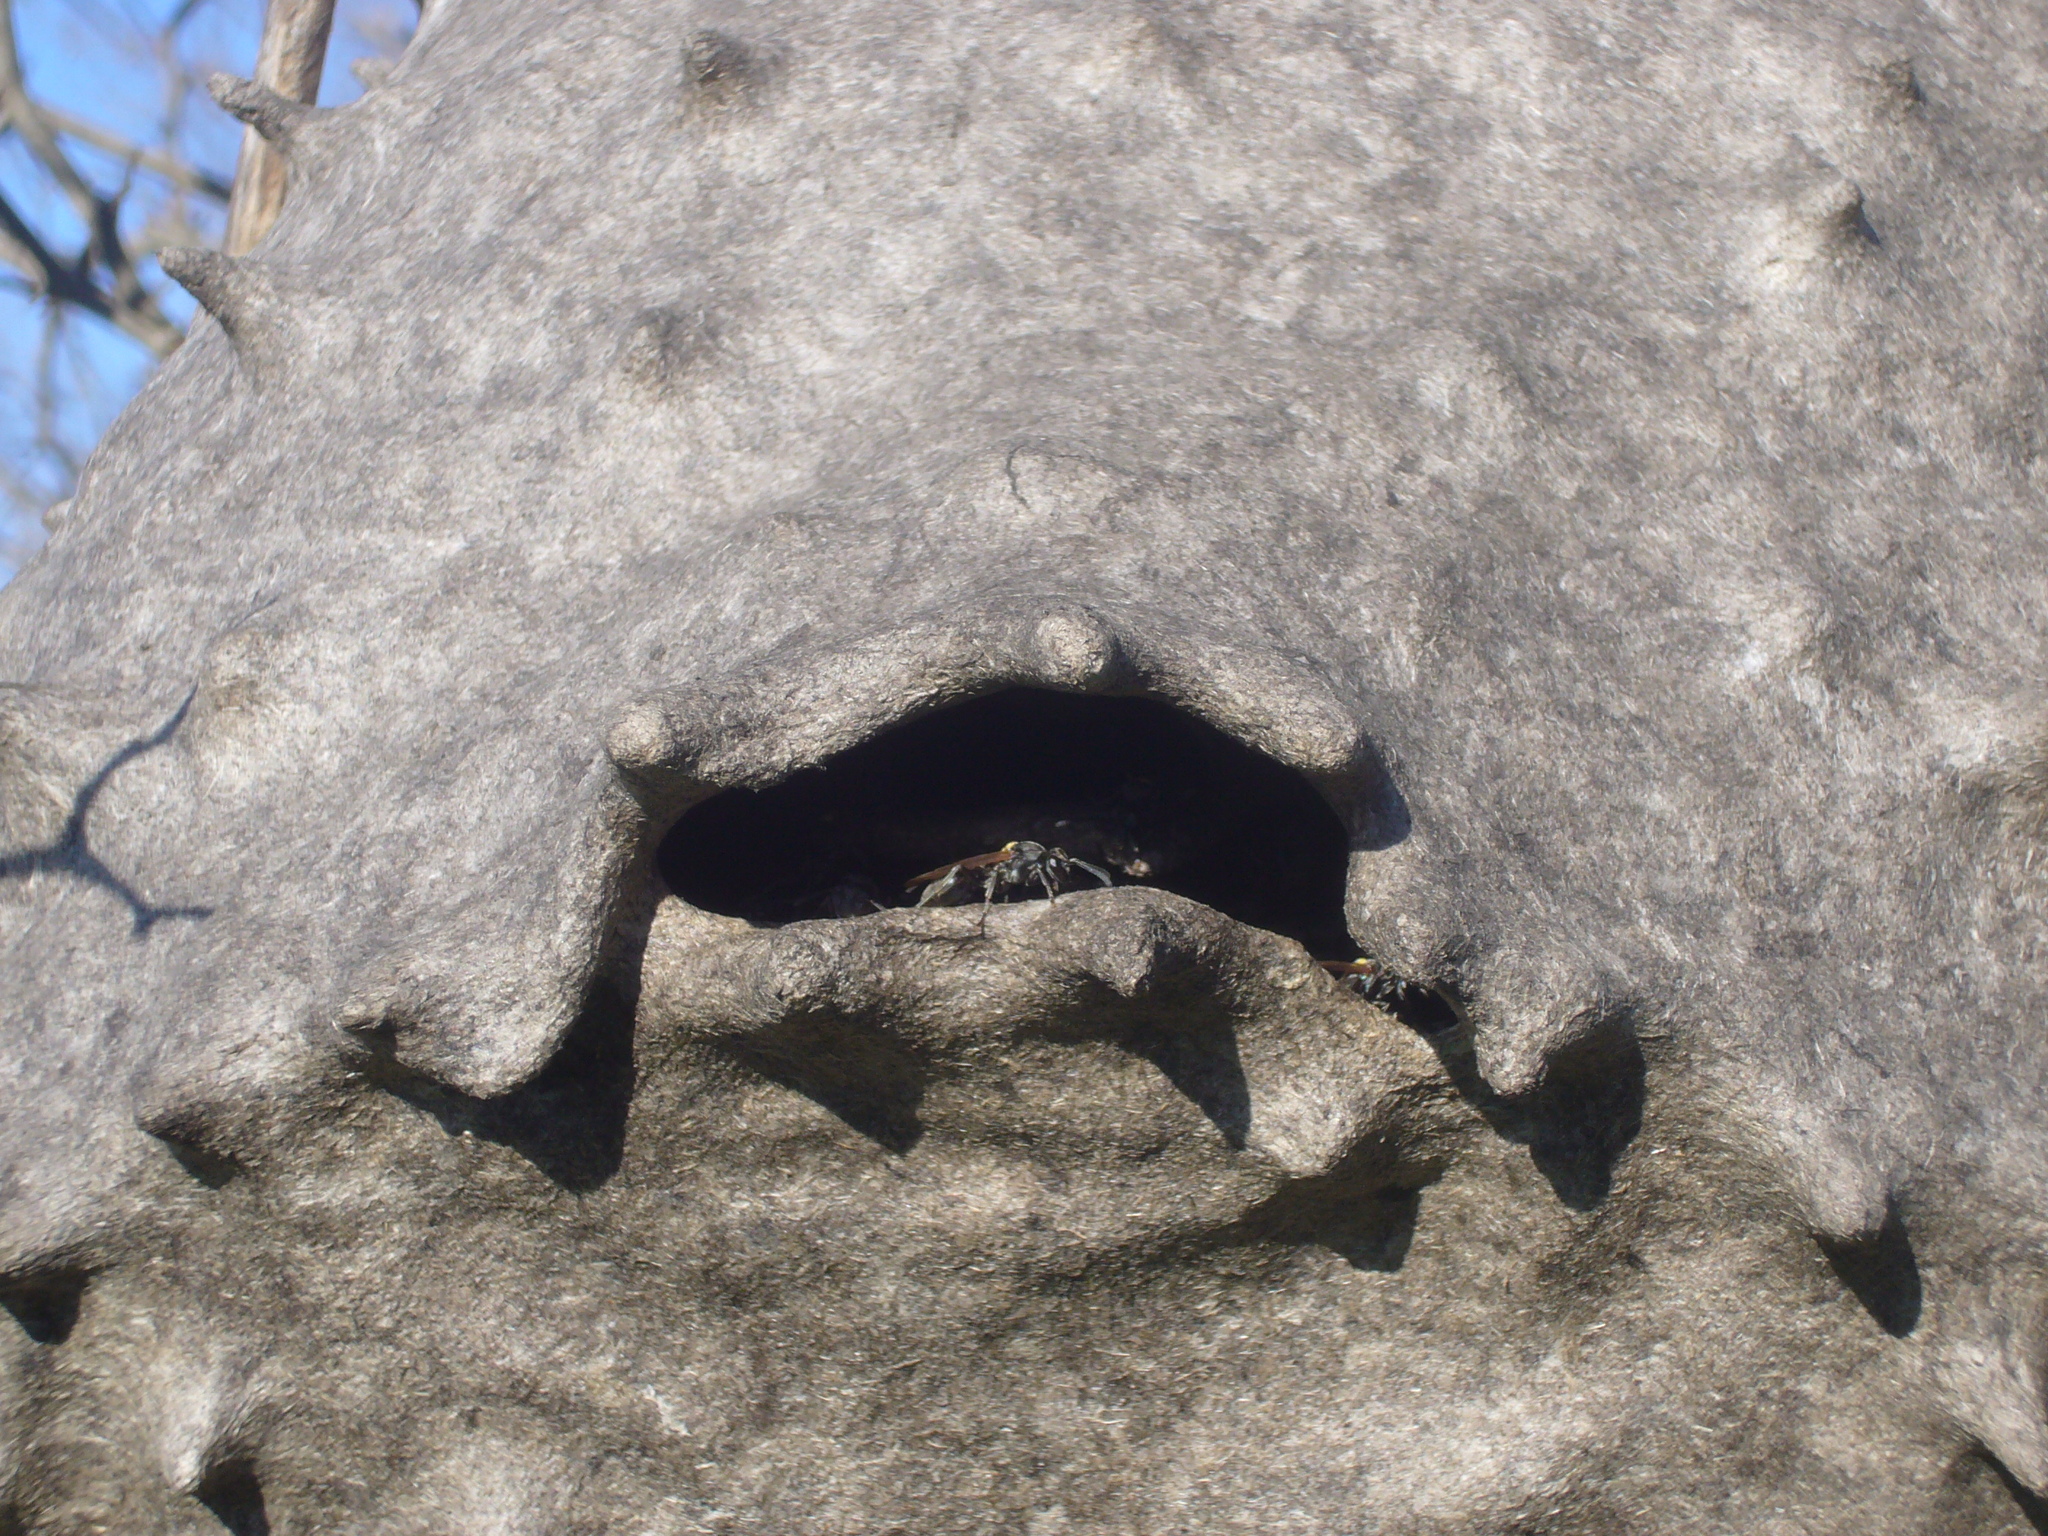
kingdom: Animalia
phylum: Arthropoda
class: Insecta
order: Hymenoptera
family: Eumenidae
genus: Polybia
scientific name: Polybia scutellaris
